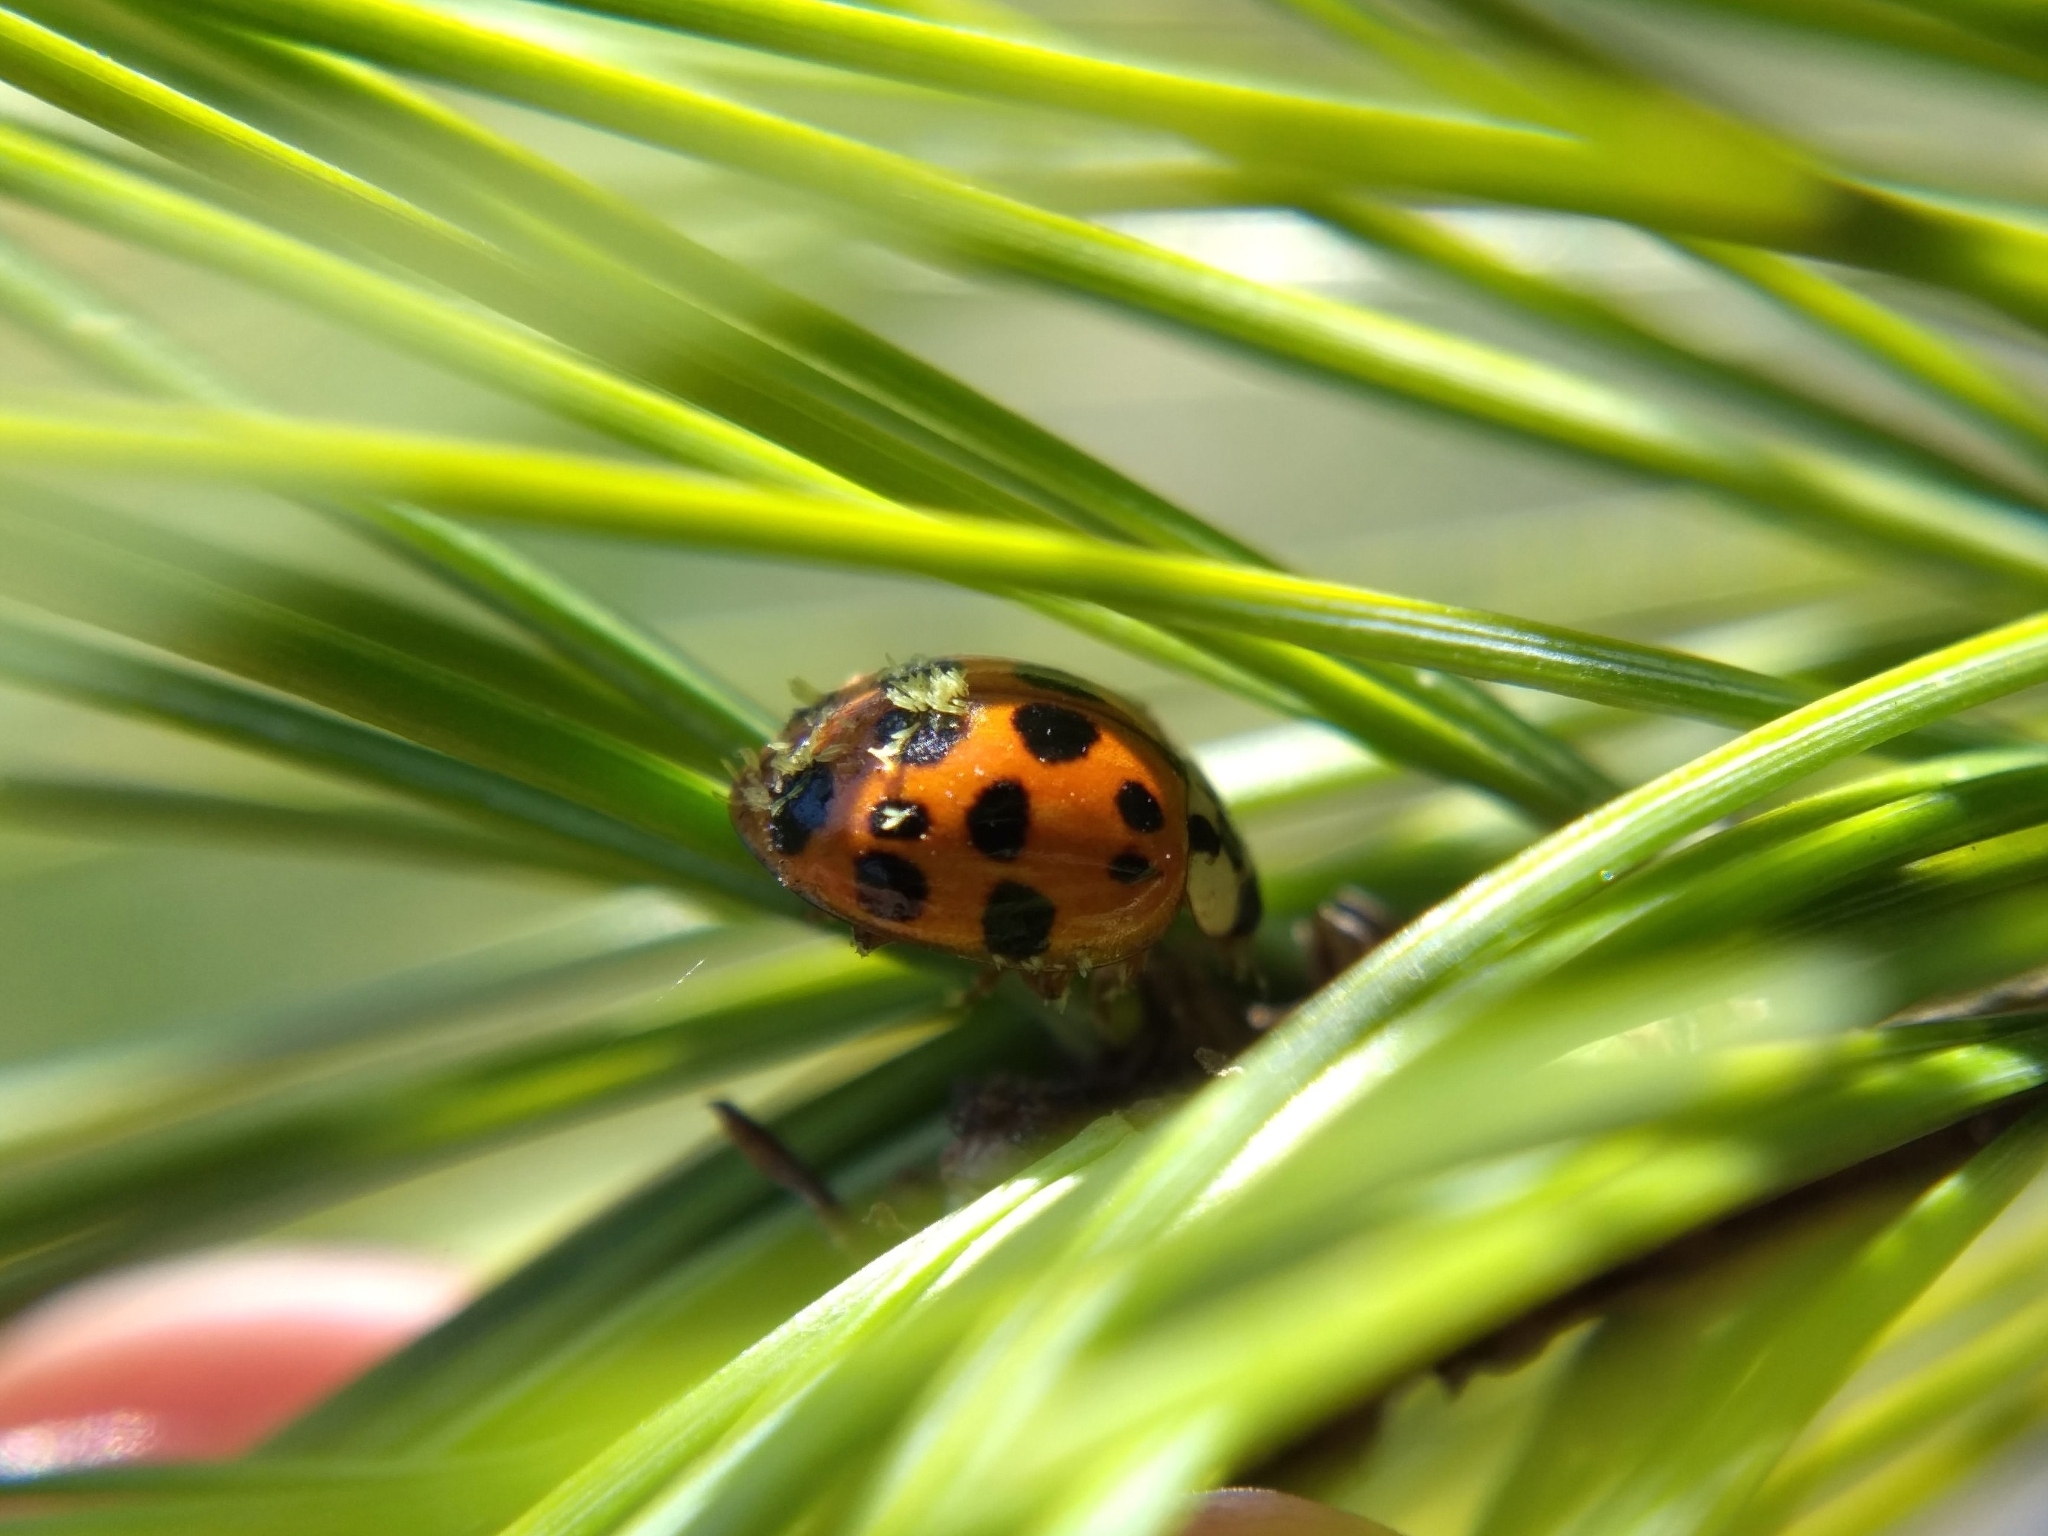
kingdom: Animalia
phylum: Arthropoda
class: Insecta
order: Coleoptera
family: Coccinellidae
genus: Harmonia
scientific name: Harmonia axyridis
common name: Harlequin ladybird
